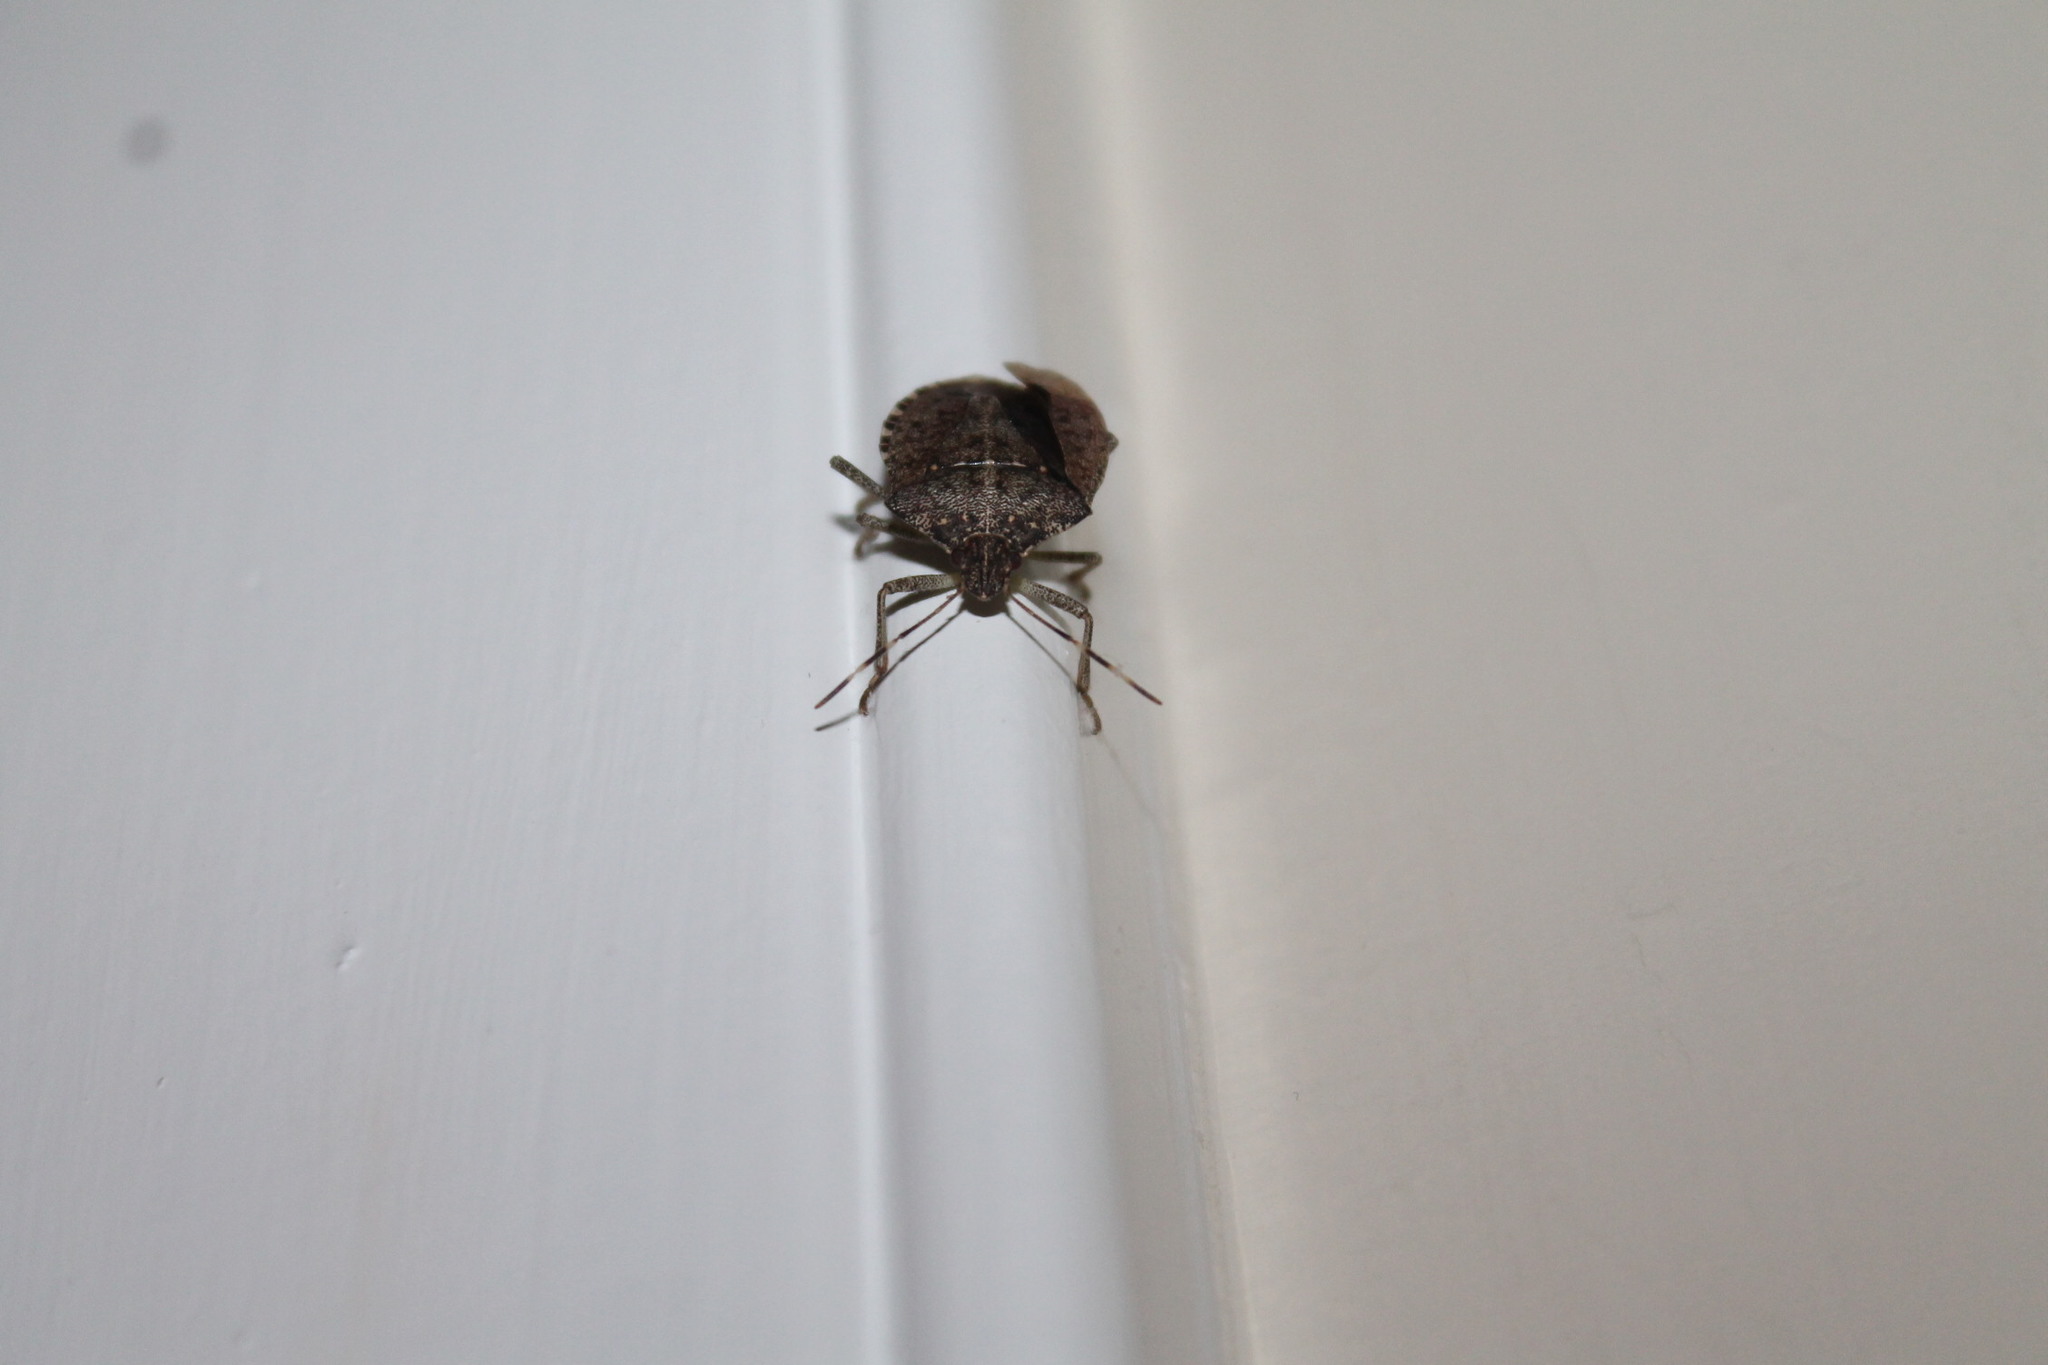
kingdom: Animalia
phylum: Arthropoda
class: Insecta
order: Hemiptera
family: Pentatomidae
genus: Halyomorpha
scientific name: Halyomorpha halys
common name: Brown marmorated stink bug
